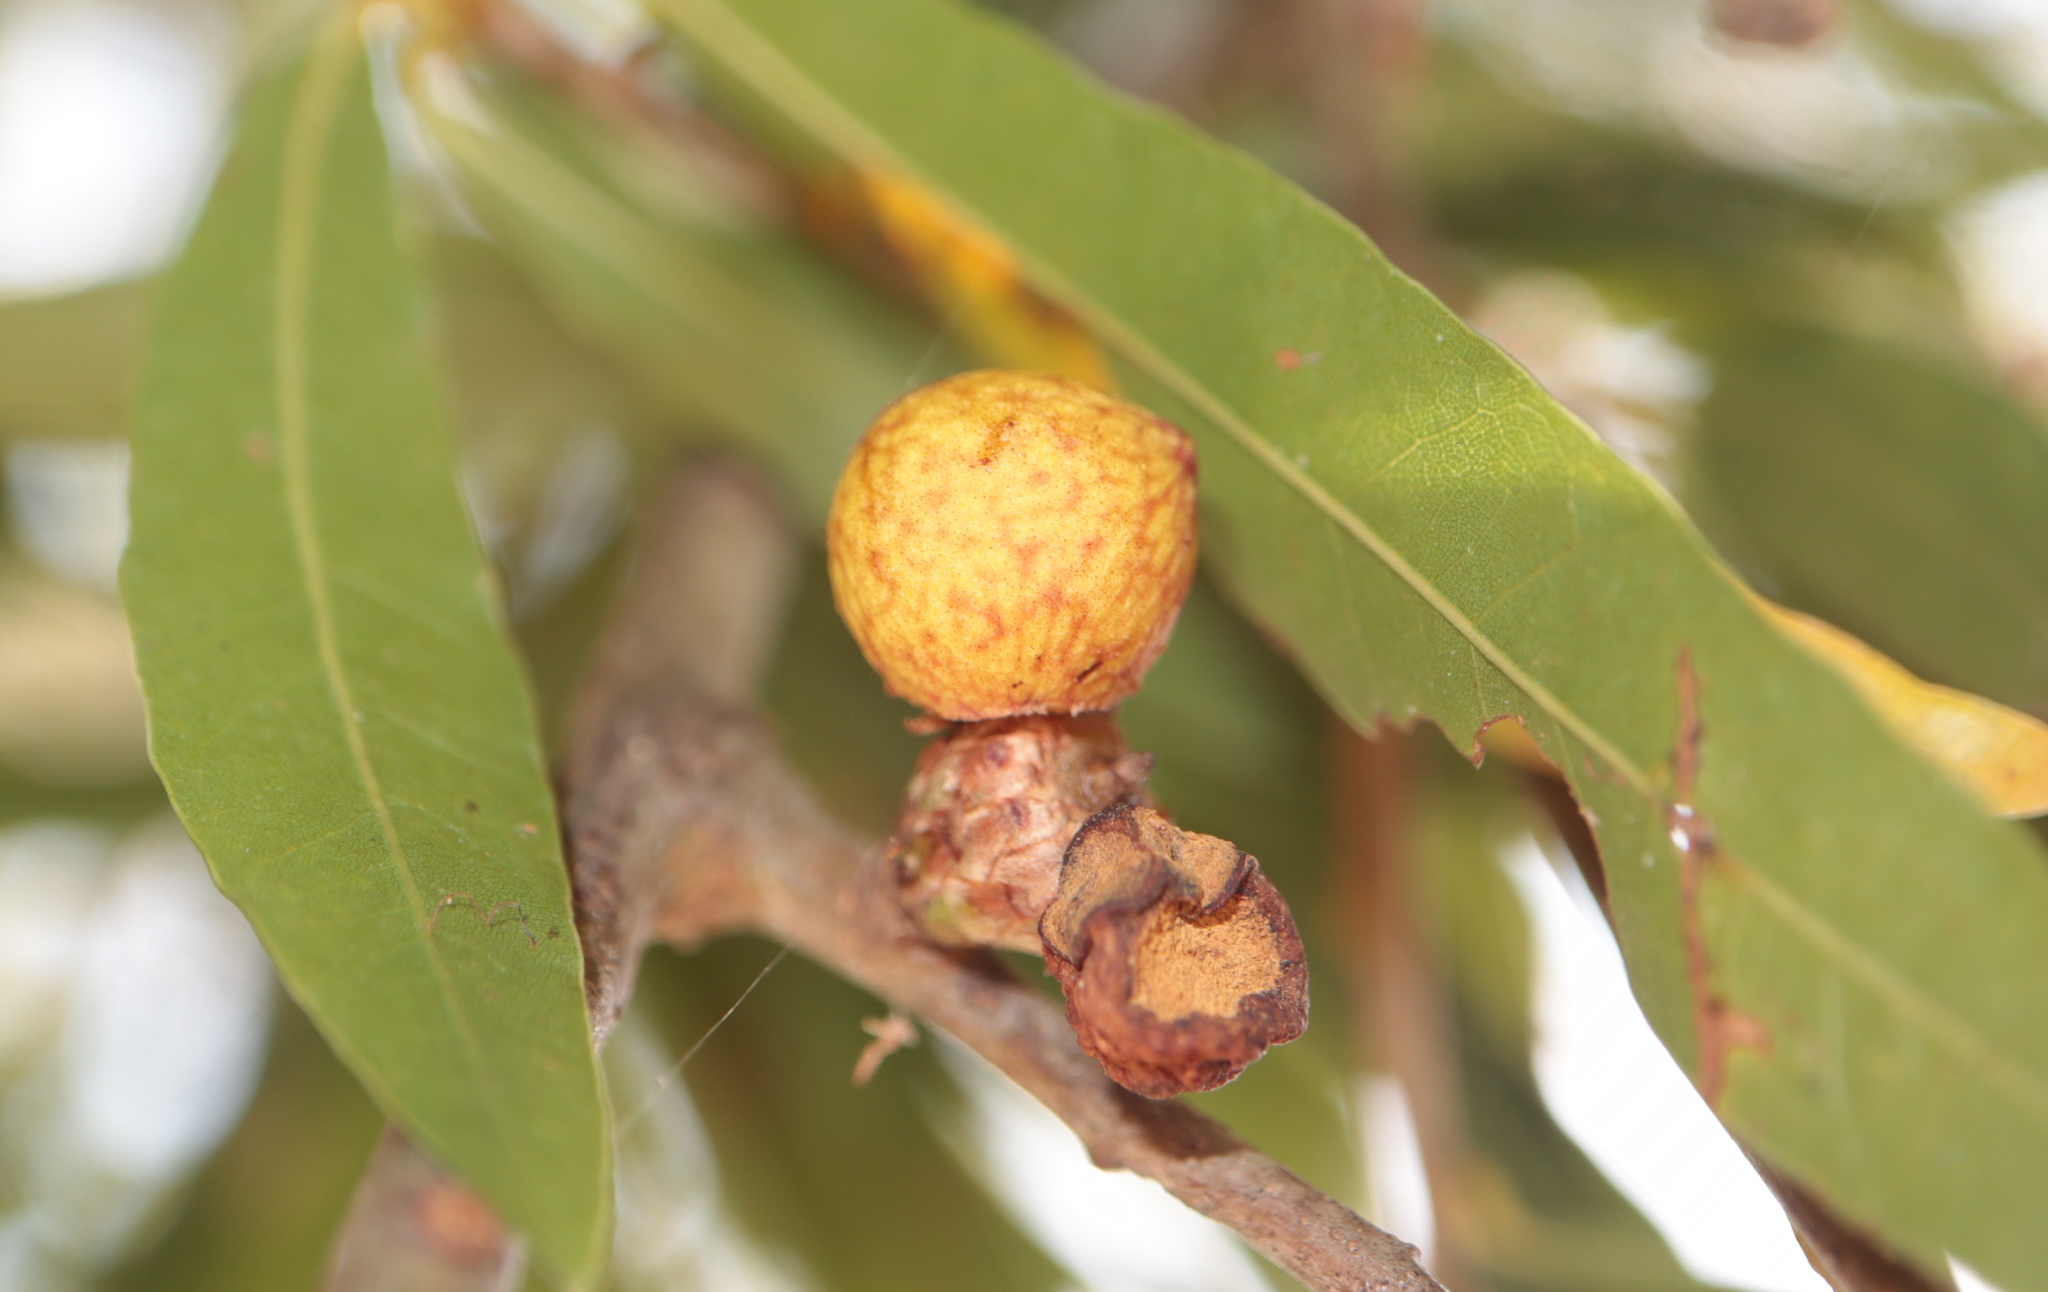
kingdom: Animalia
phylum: Arthropoda
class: Insecta
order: Hymenoptera
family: Cynipidae
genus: Amphibolips
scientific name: Amphibolips
